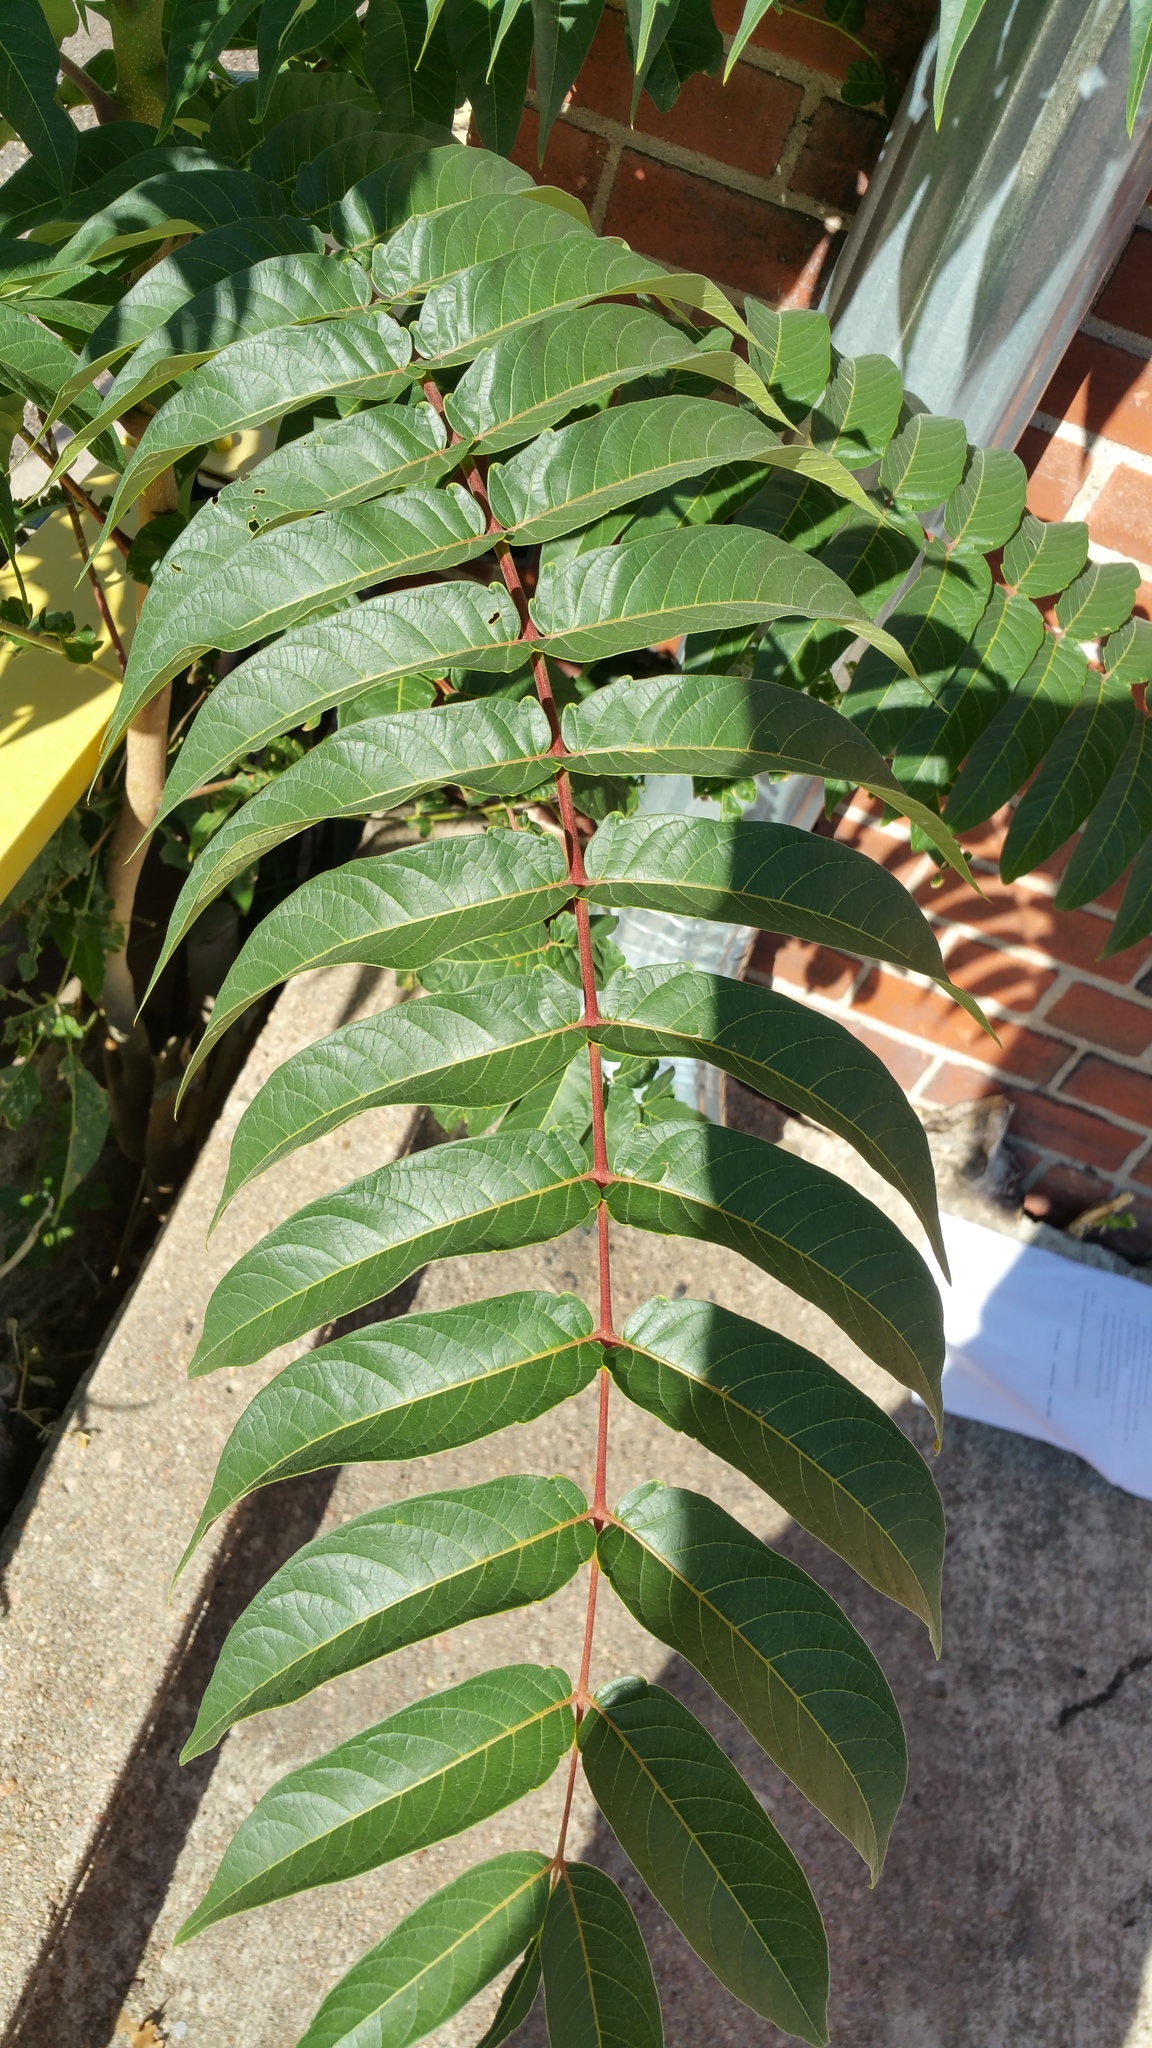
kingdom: Plantae
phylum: Tracheophyta
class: Magnoliopsida
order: Sapindales
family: Simaroubaceae
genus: Ailanthus
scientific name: Ailanthus altissima
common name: Tree-of-heaven
